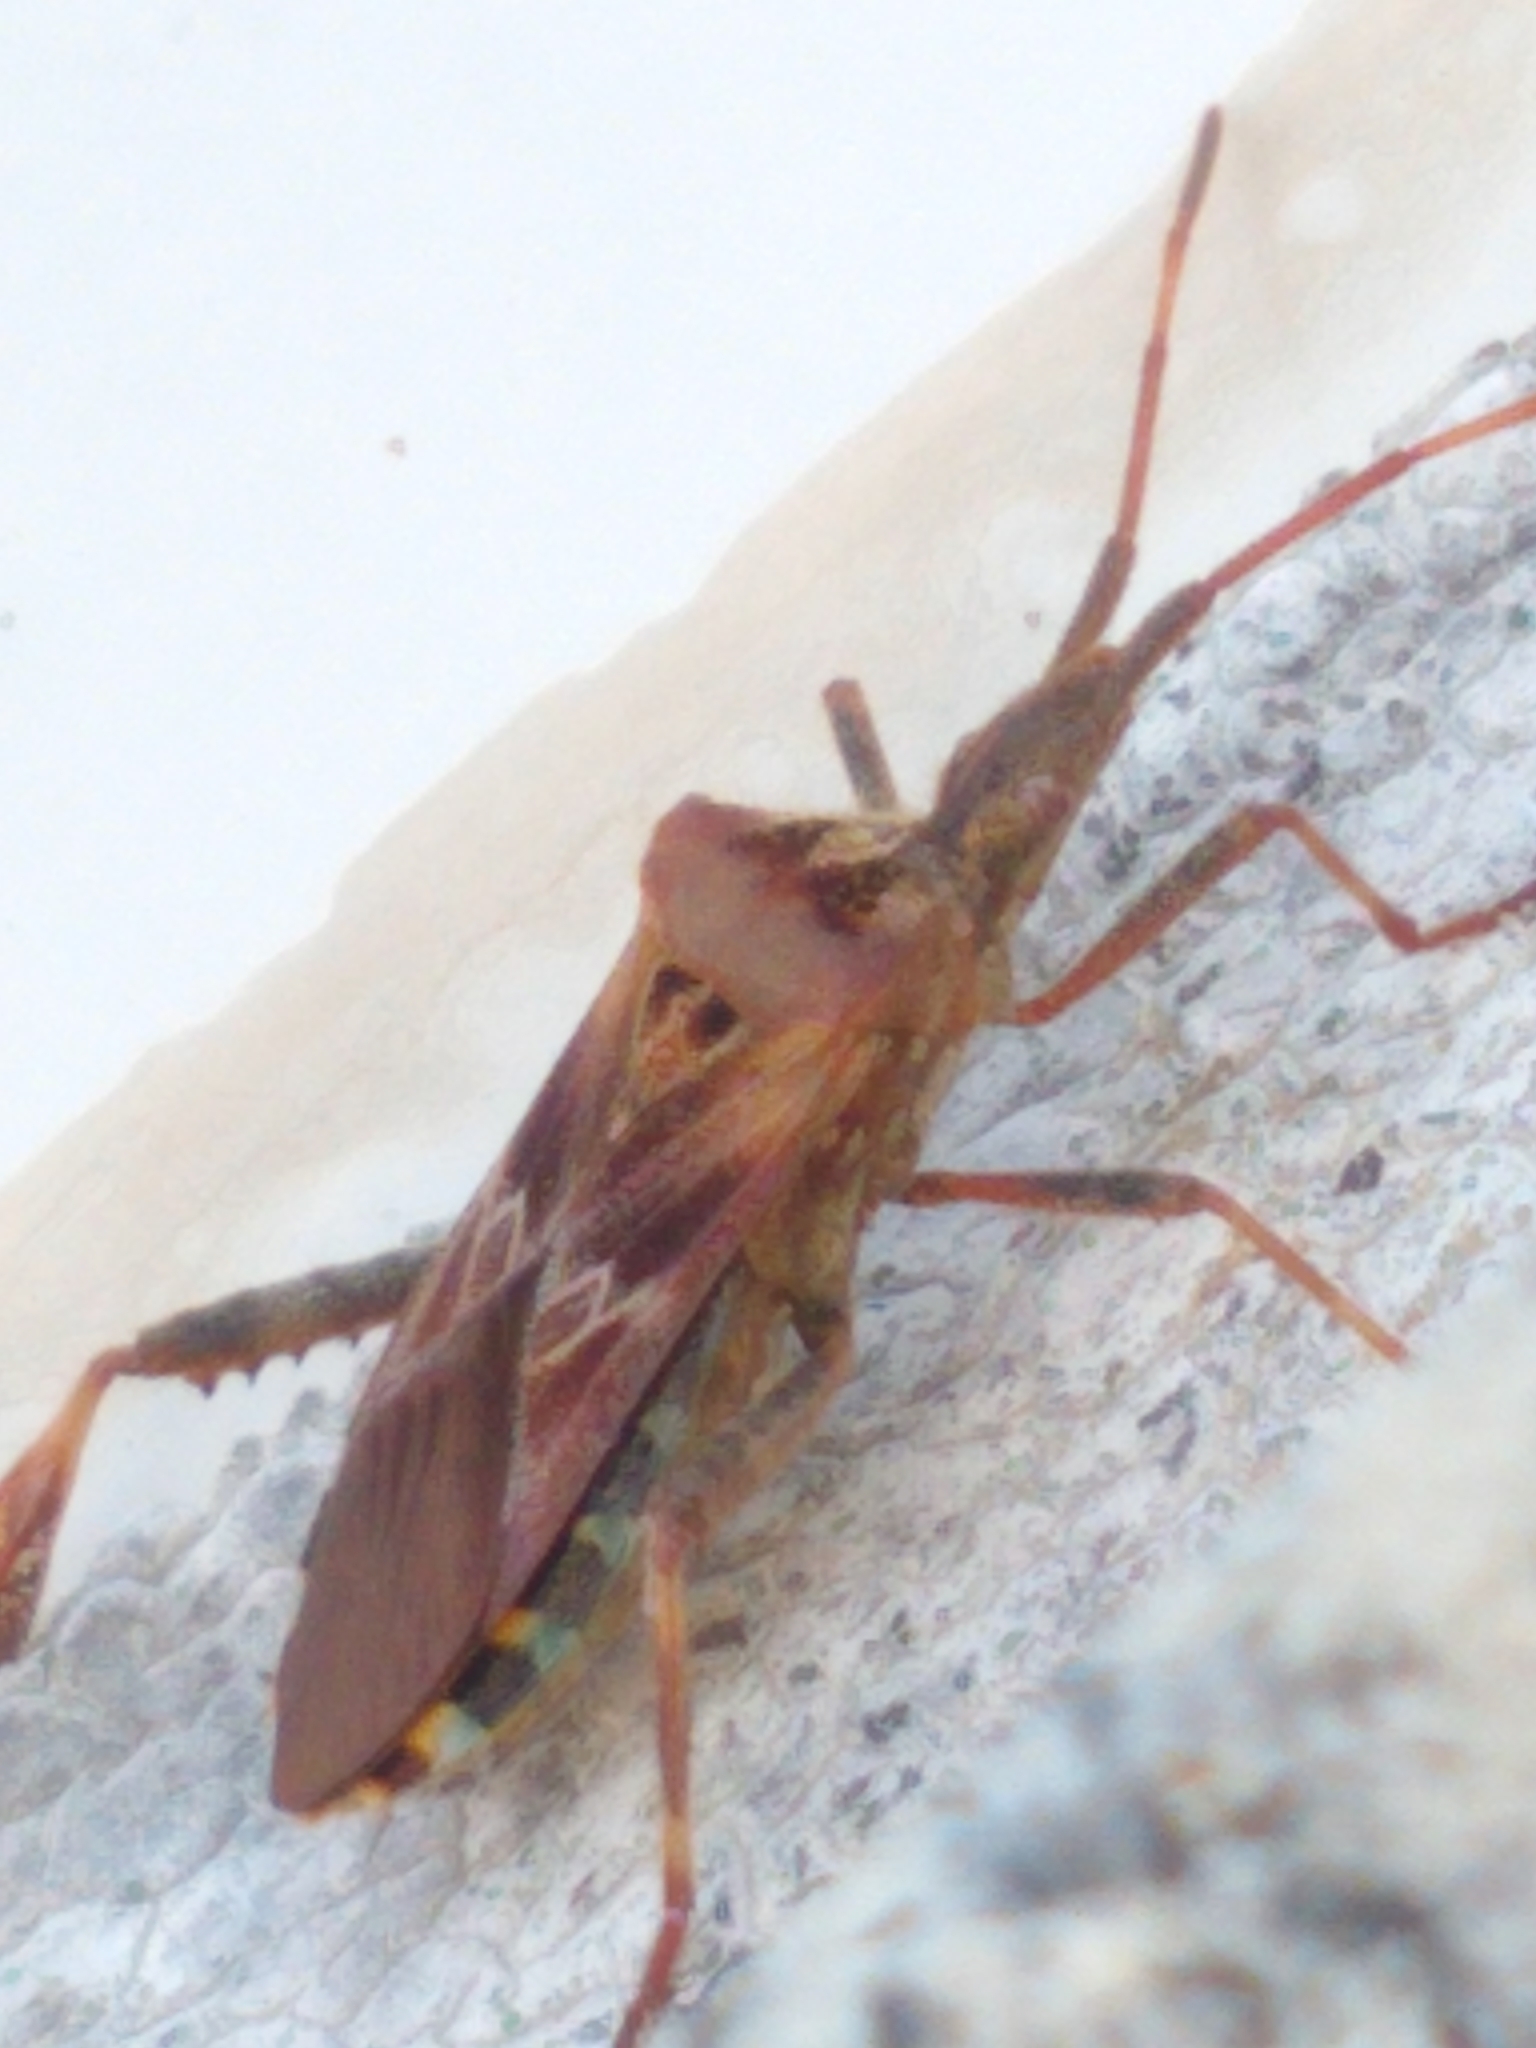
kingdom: Animalia
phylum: Arthropoda
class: Insecta
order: Hemiptera
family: Coreidae
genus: Leptoglossus
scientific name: Leptoglossus occidentalis
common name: Western conifer-seed bug
